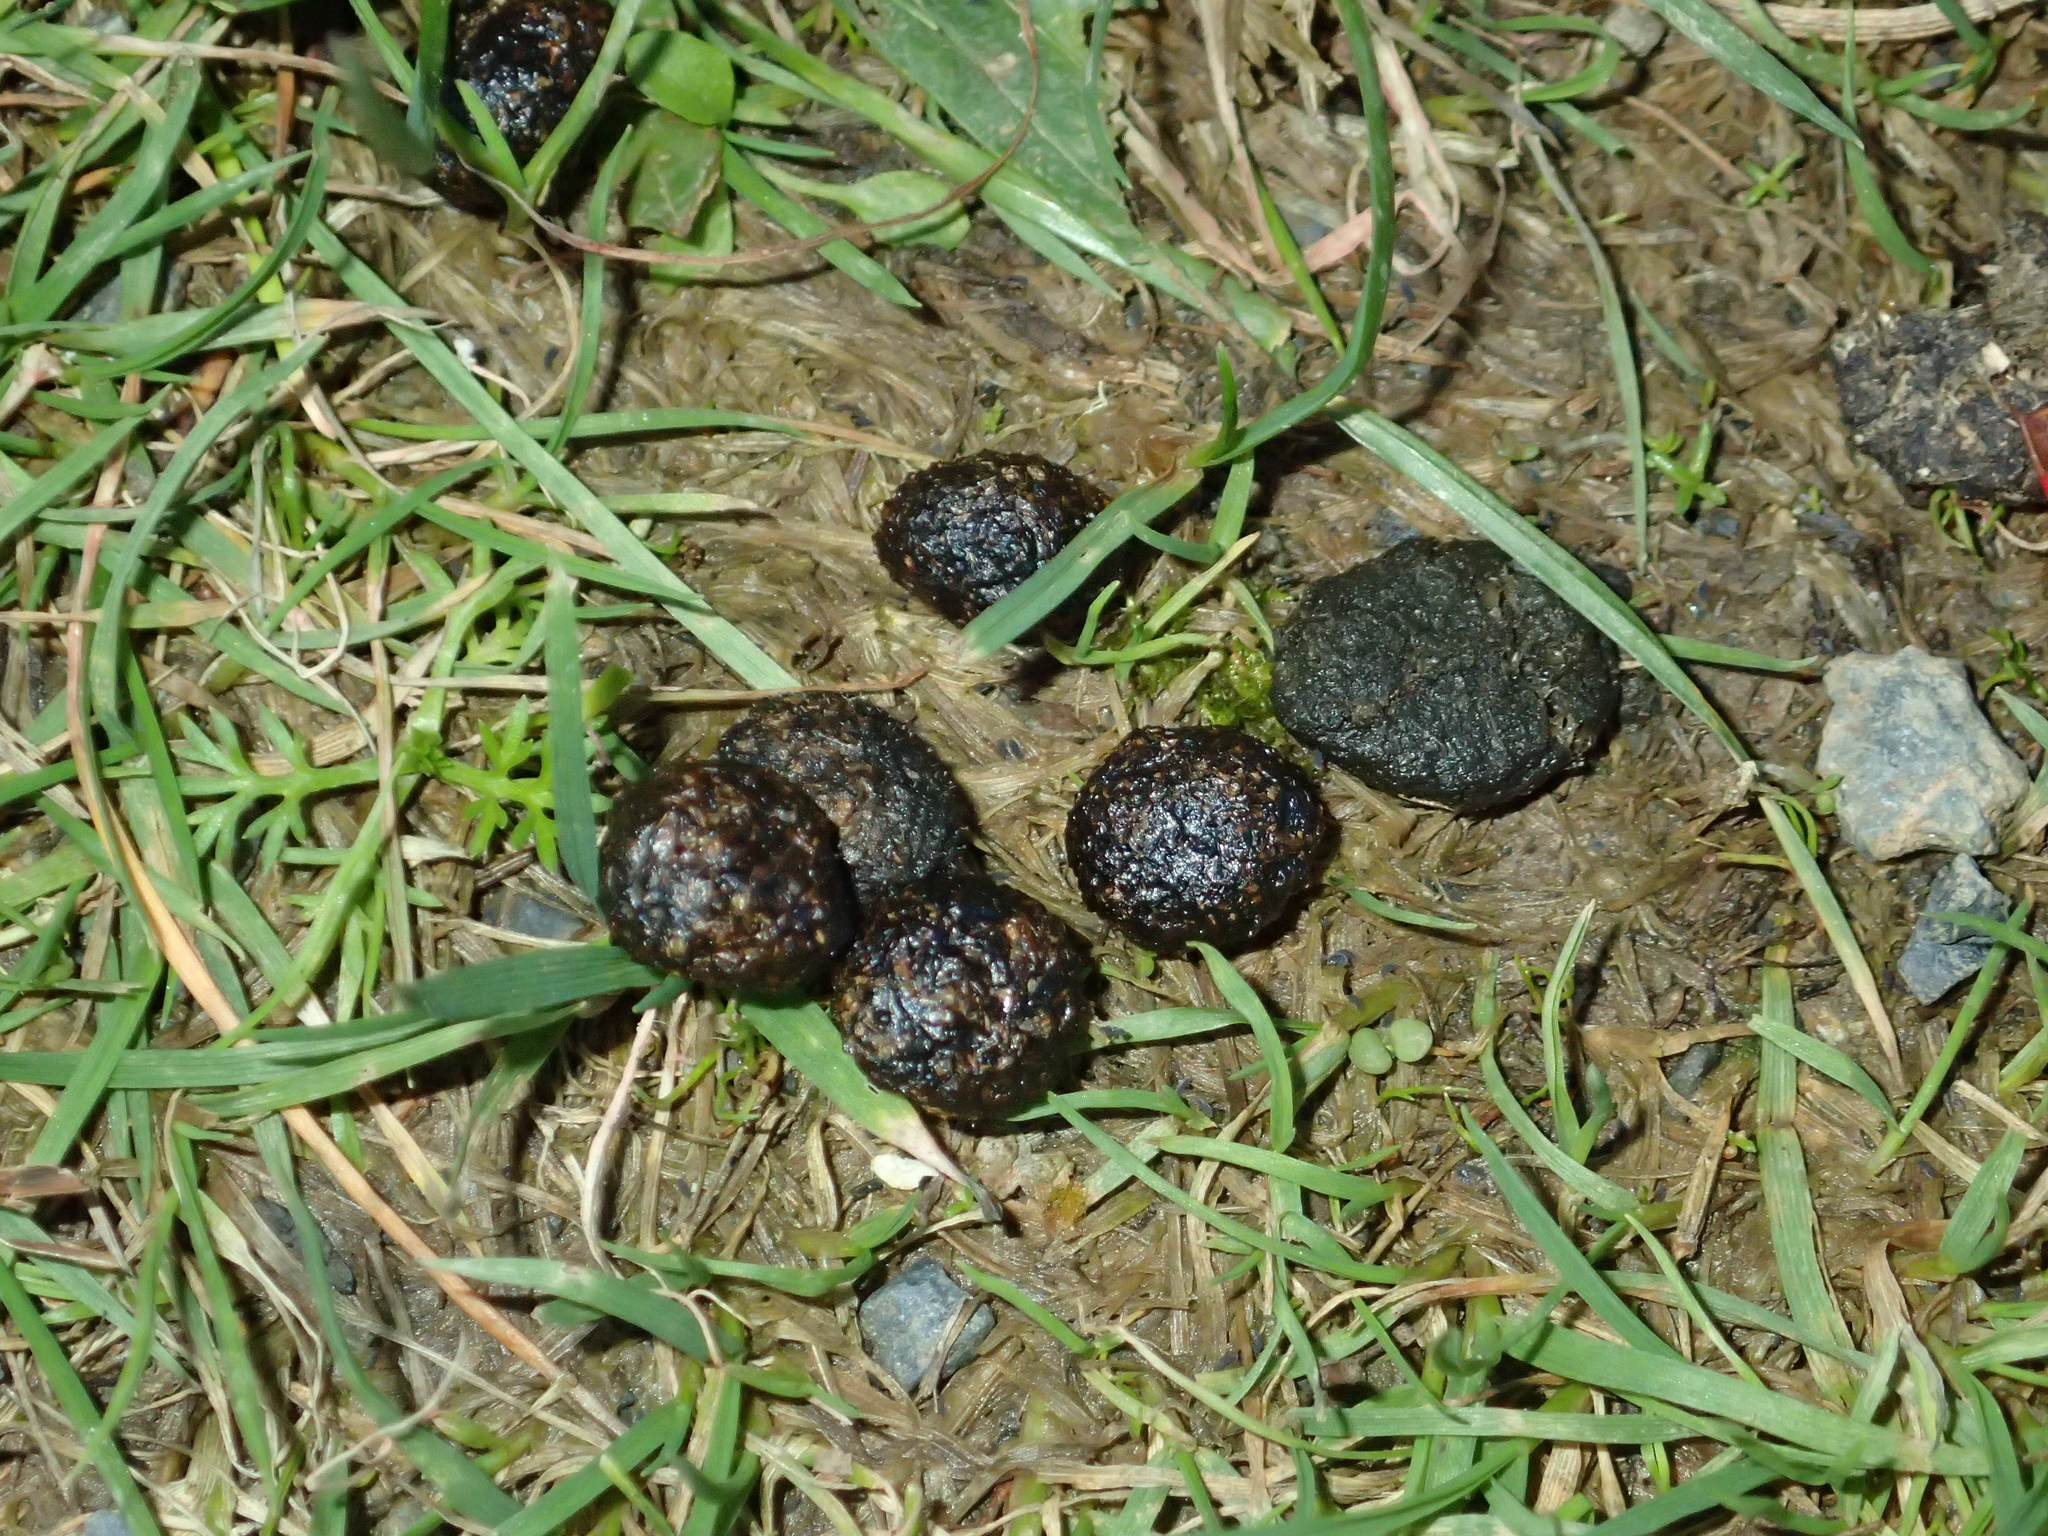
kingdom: Animalia
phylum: Chordata
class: Mammalia
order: Lagomorpha
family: Leporidae
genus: Oryctolagus
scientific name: Oryctolagus cuniculus
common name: European rabbit
